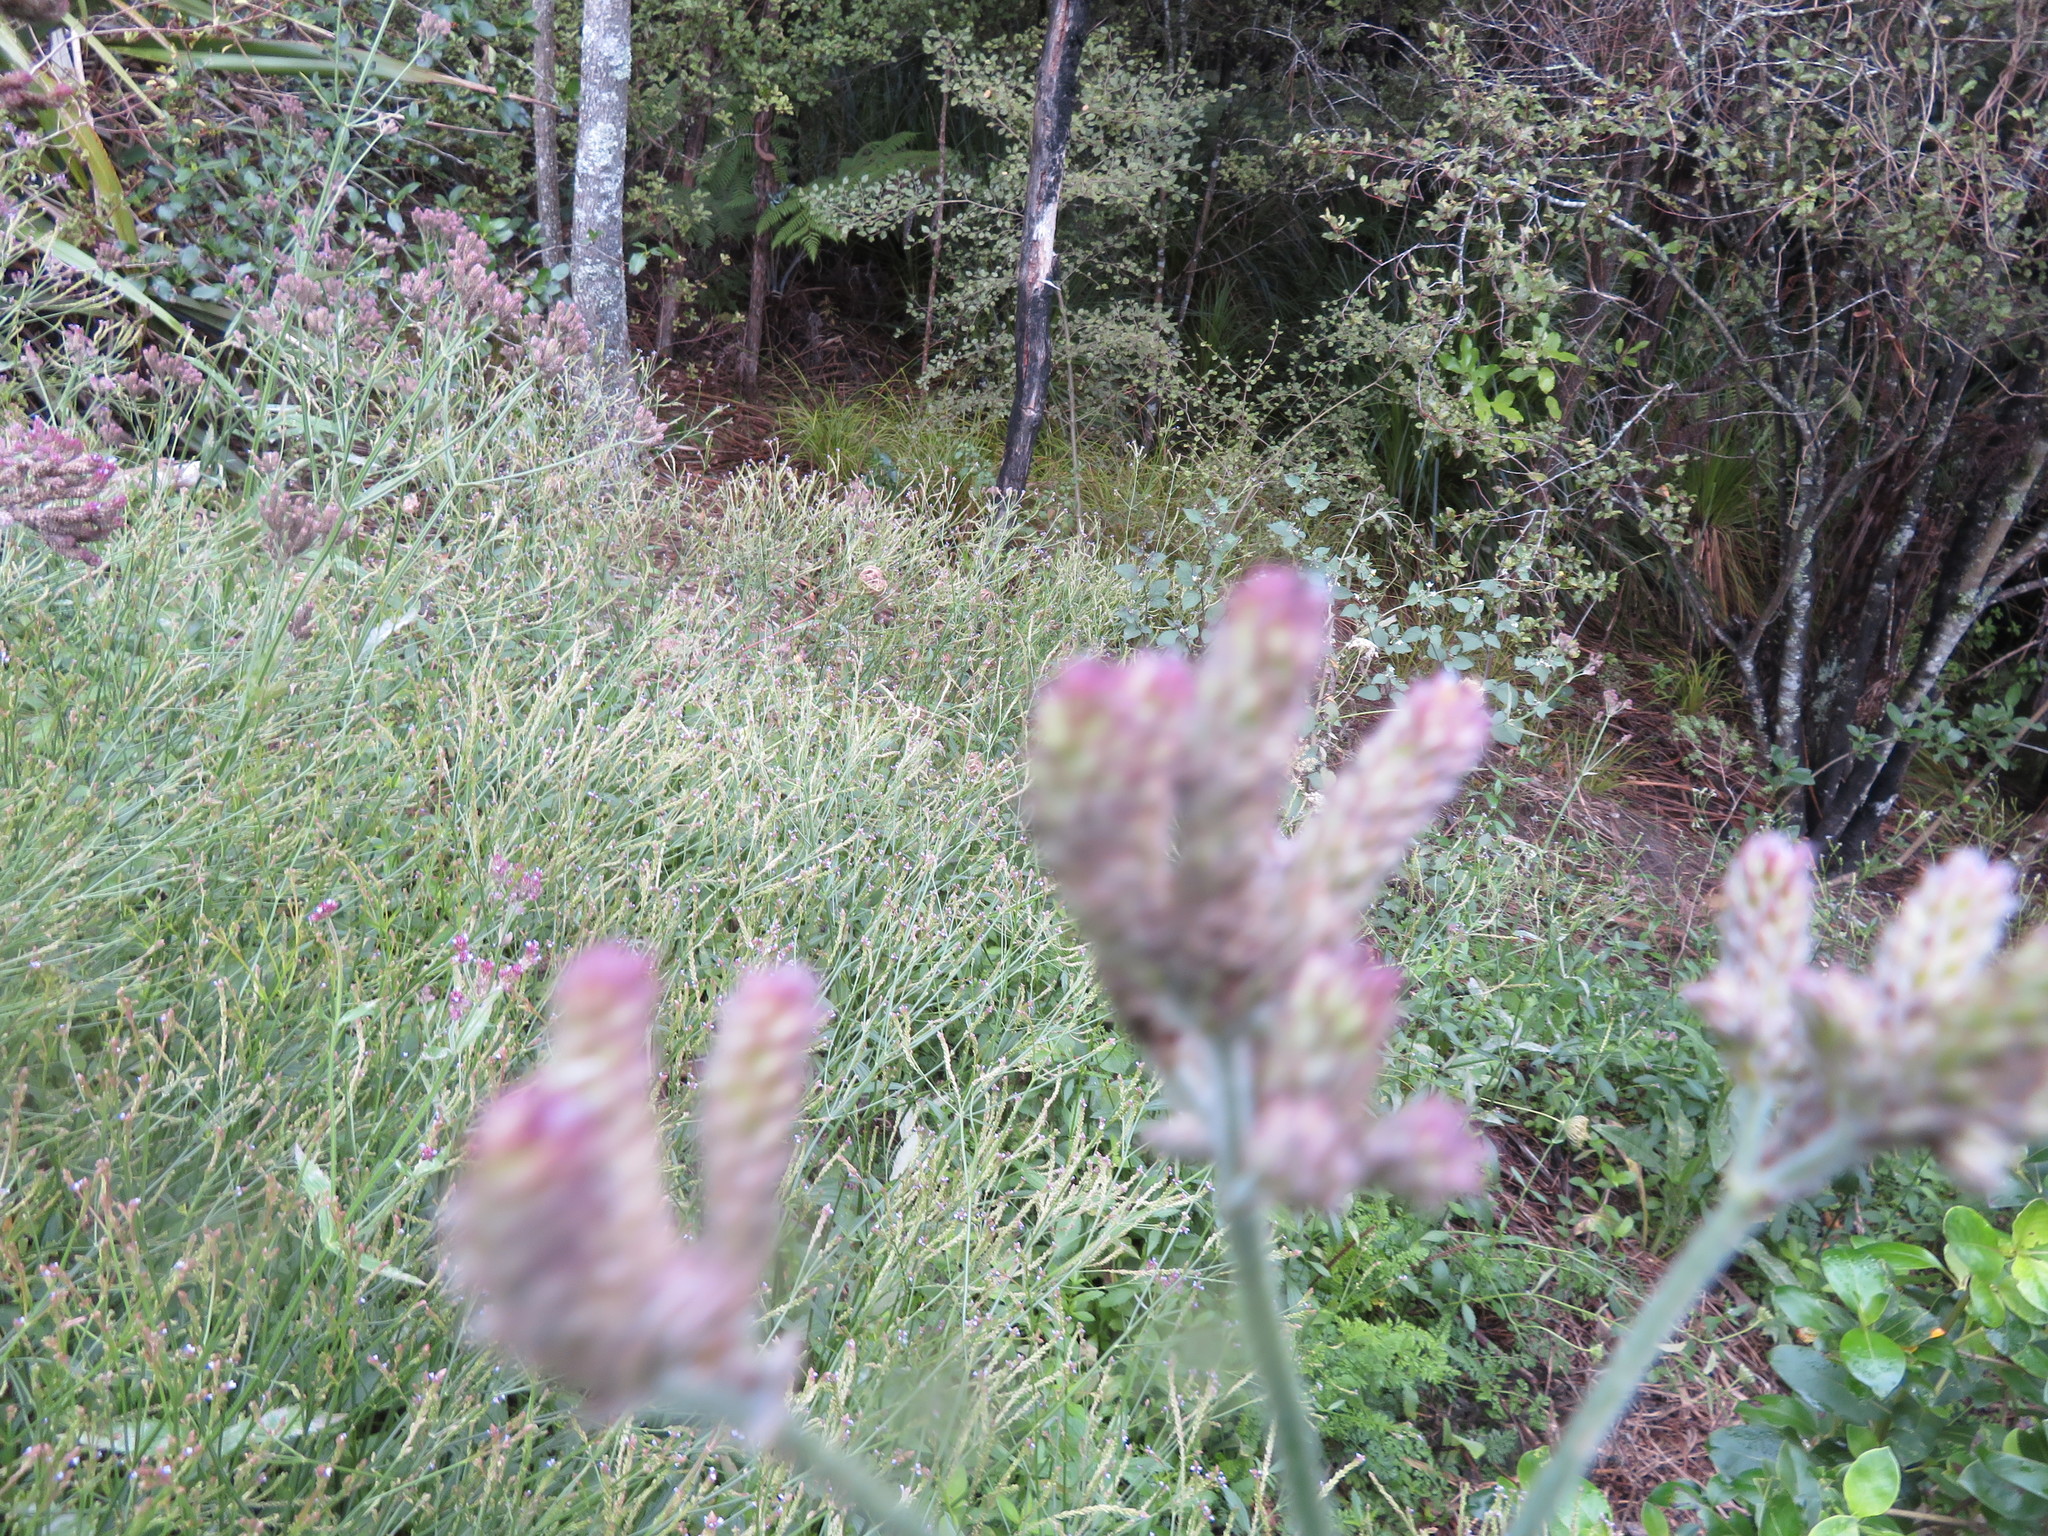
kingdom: Plantae
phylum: Tracheophyta
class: Magnoliopsida
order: Lamiales
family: Verbenaceae
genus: Verbena
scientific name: Verbena litoralis
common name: Seashore vervain
